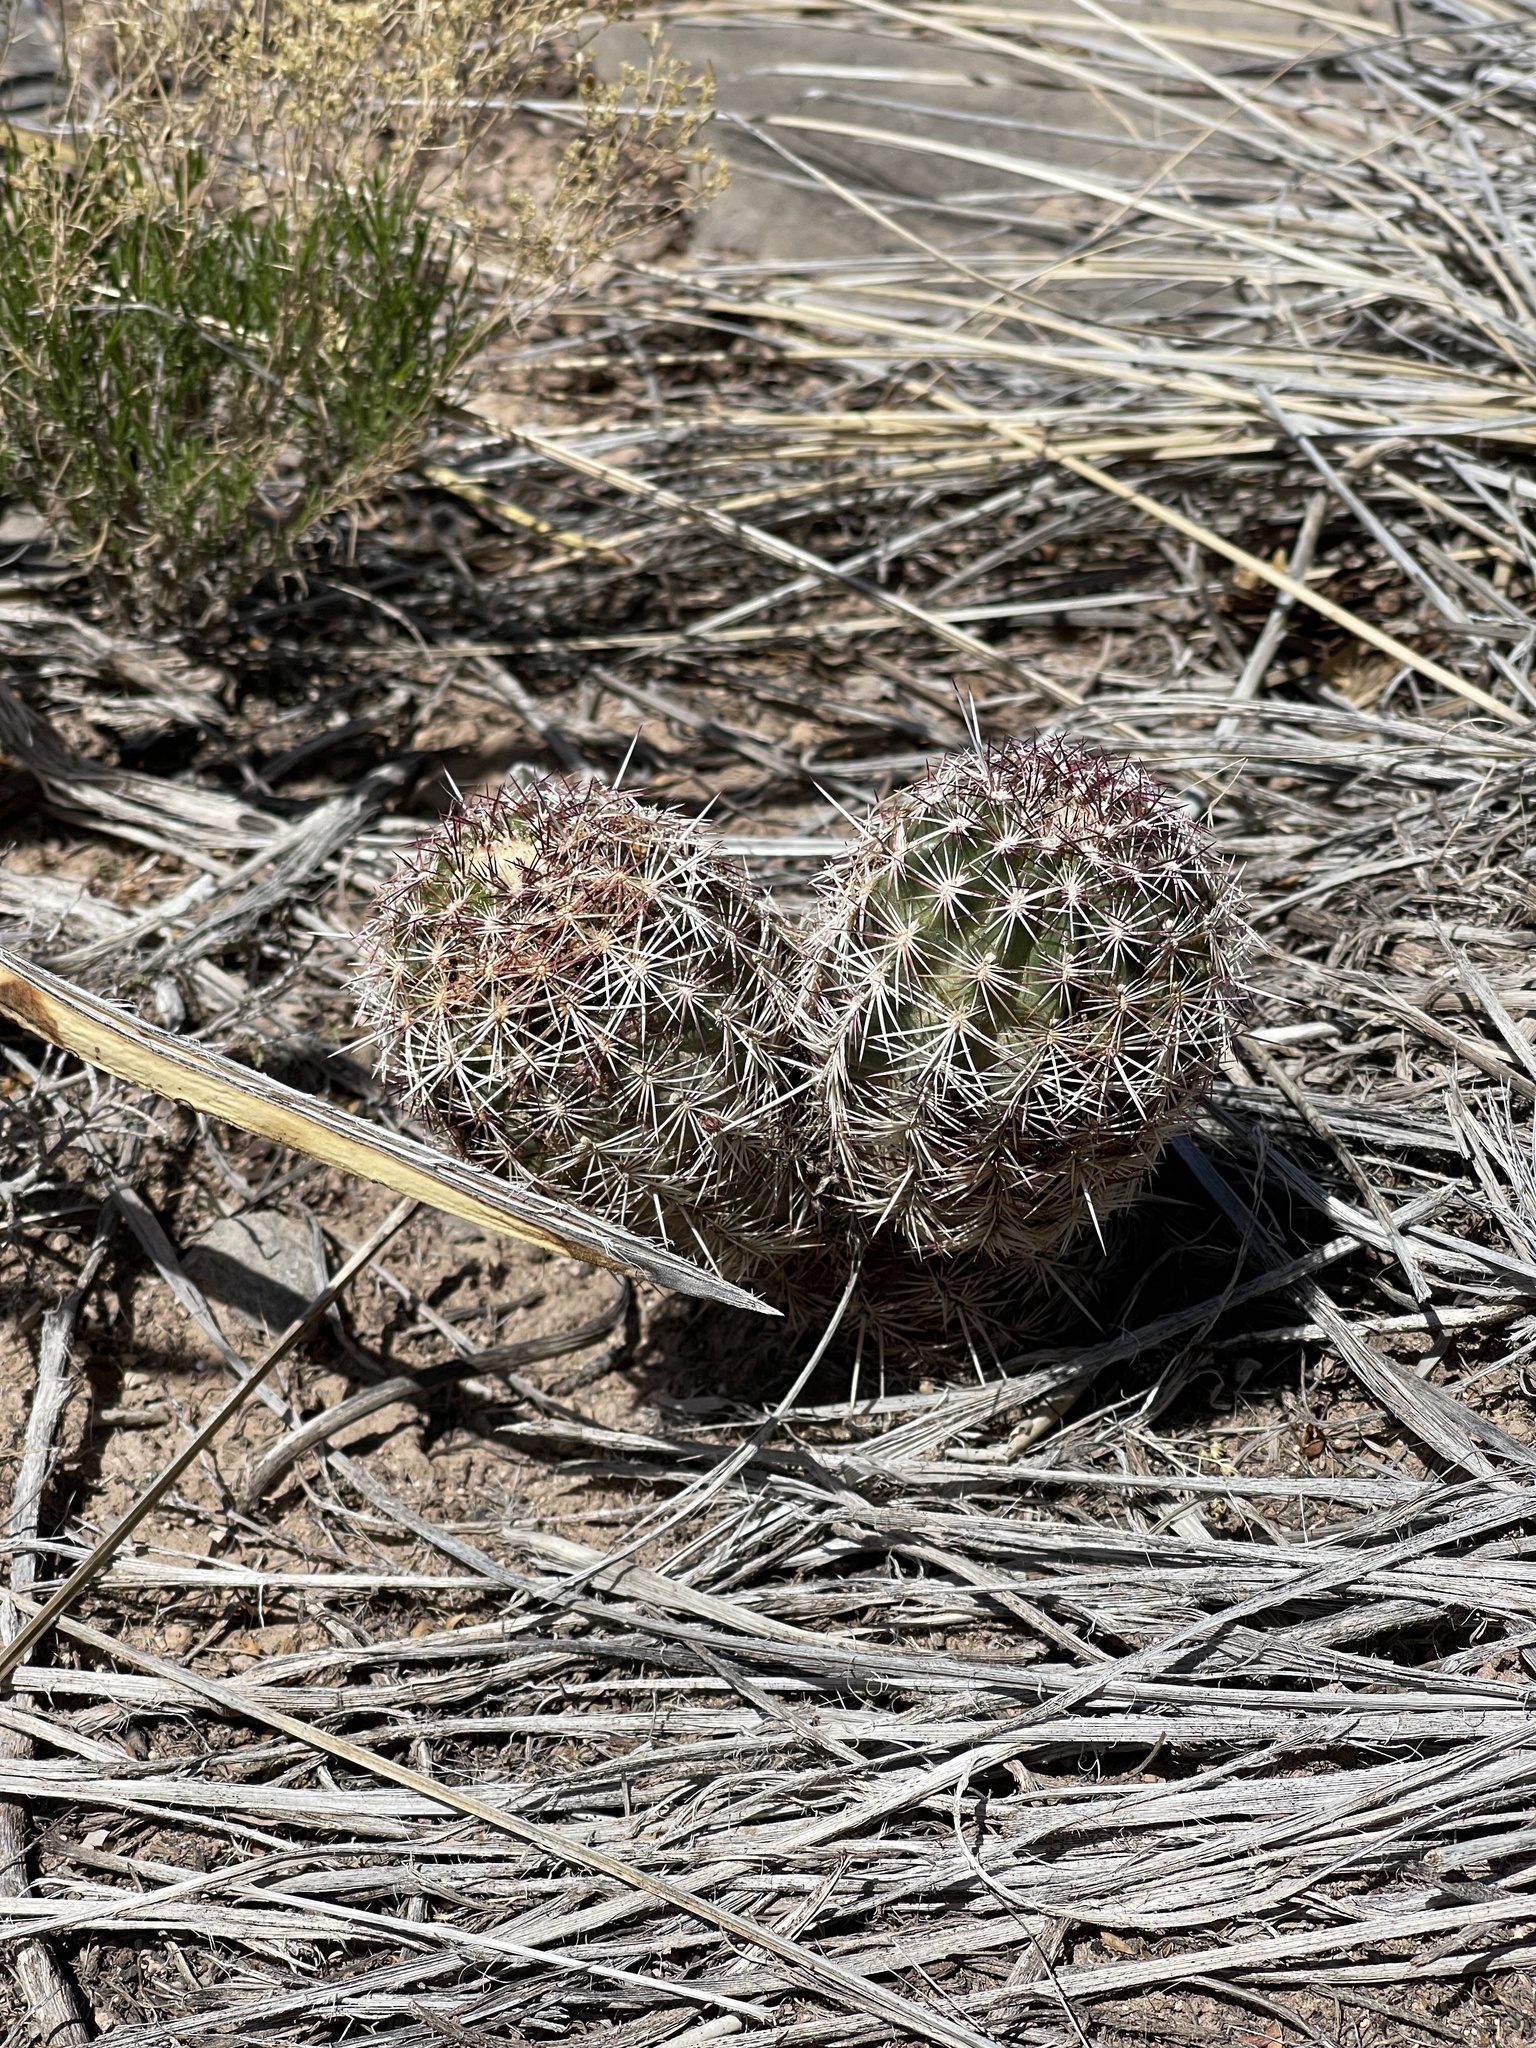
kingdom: Plantae
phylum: Tracheophyta
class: Magnoliopsida
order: Caryophyllales
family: Cactaceae
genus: Echinocereus
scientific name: Echinocereus viridiflorus
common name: Nylon hedgehog cactus
